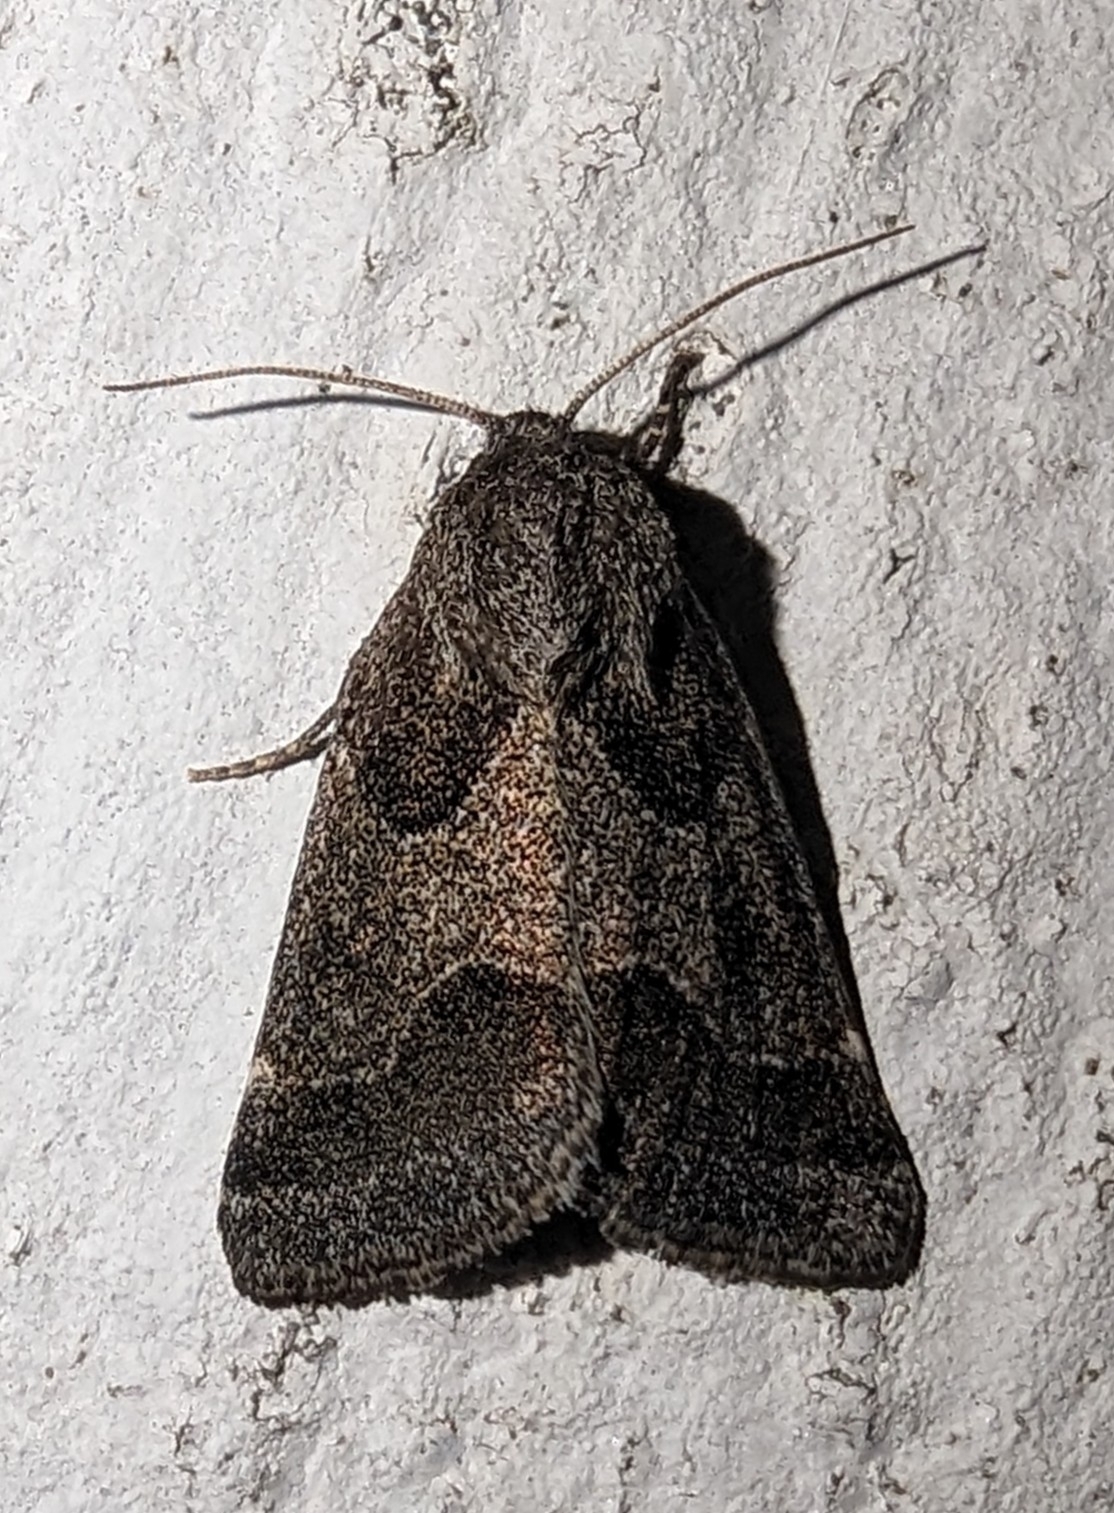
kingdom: Animalia
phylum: Arthropoda
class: Insecta
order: Lepidoptera
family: Noctuidae
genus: Schinia
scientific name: Schinia rivulosa
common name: Scarce meal-moth
